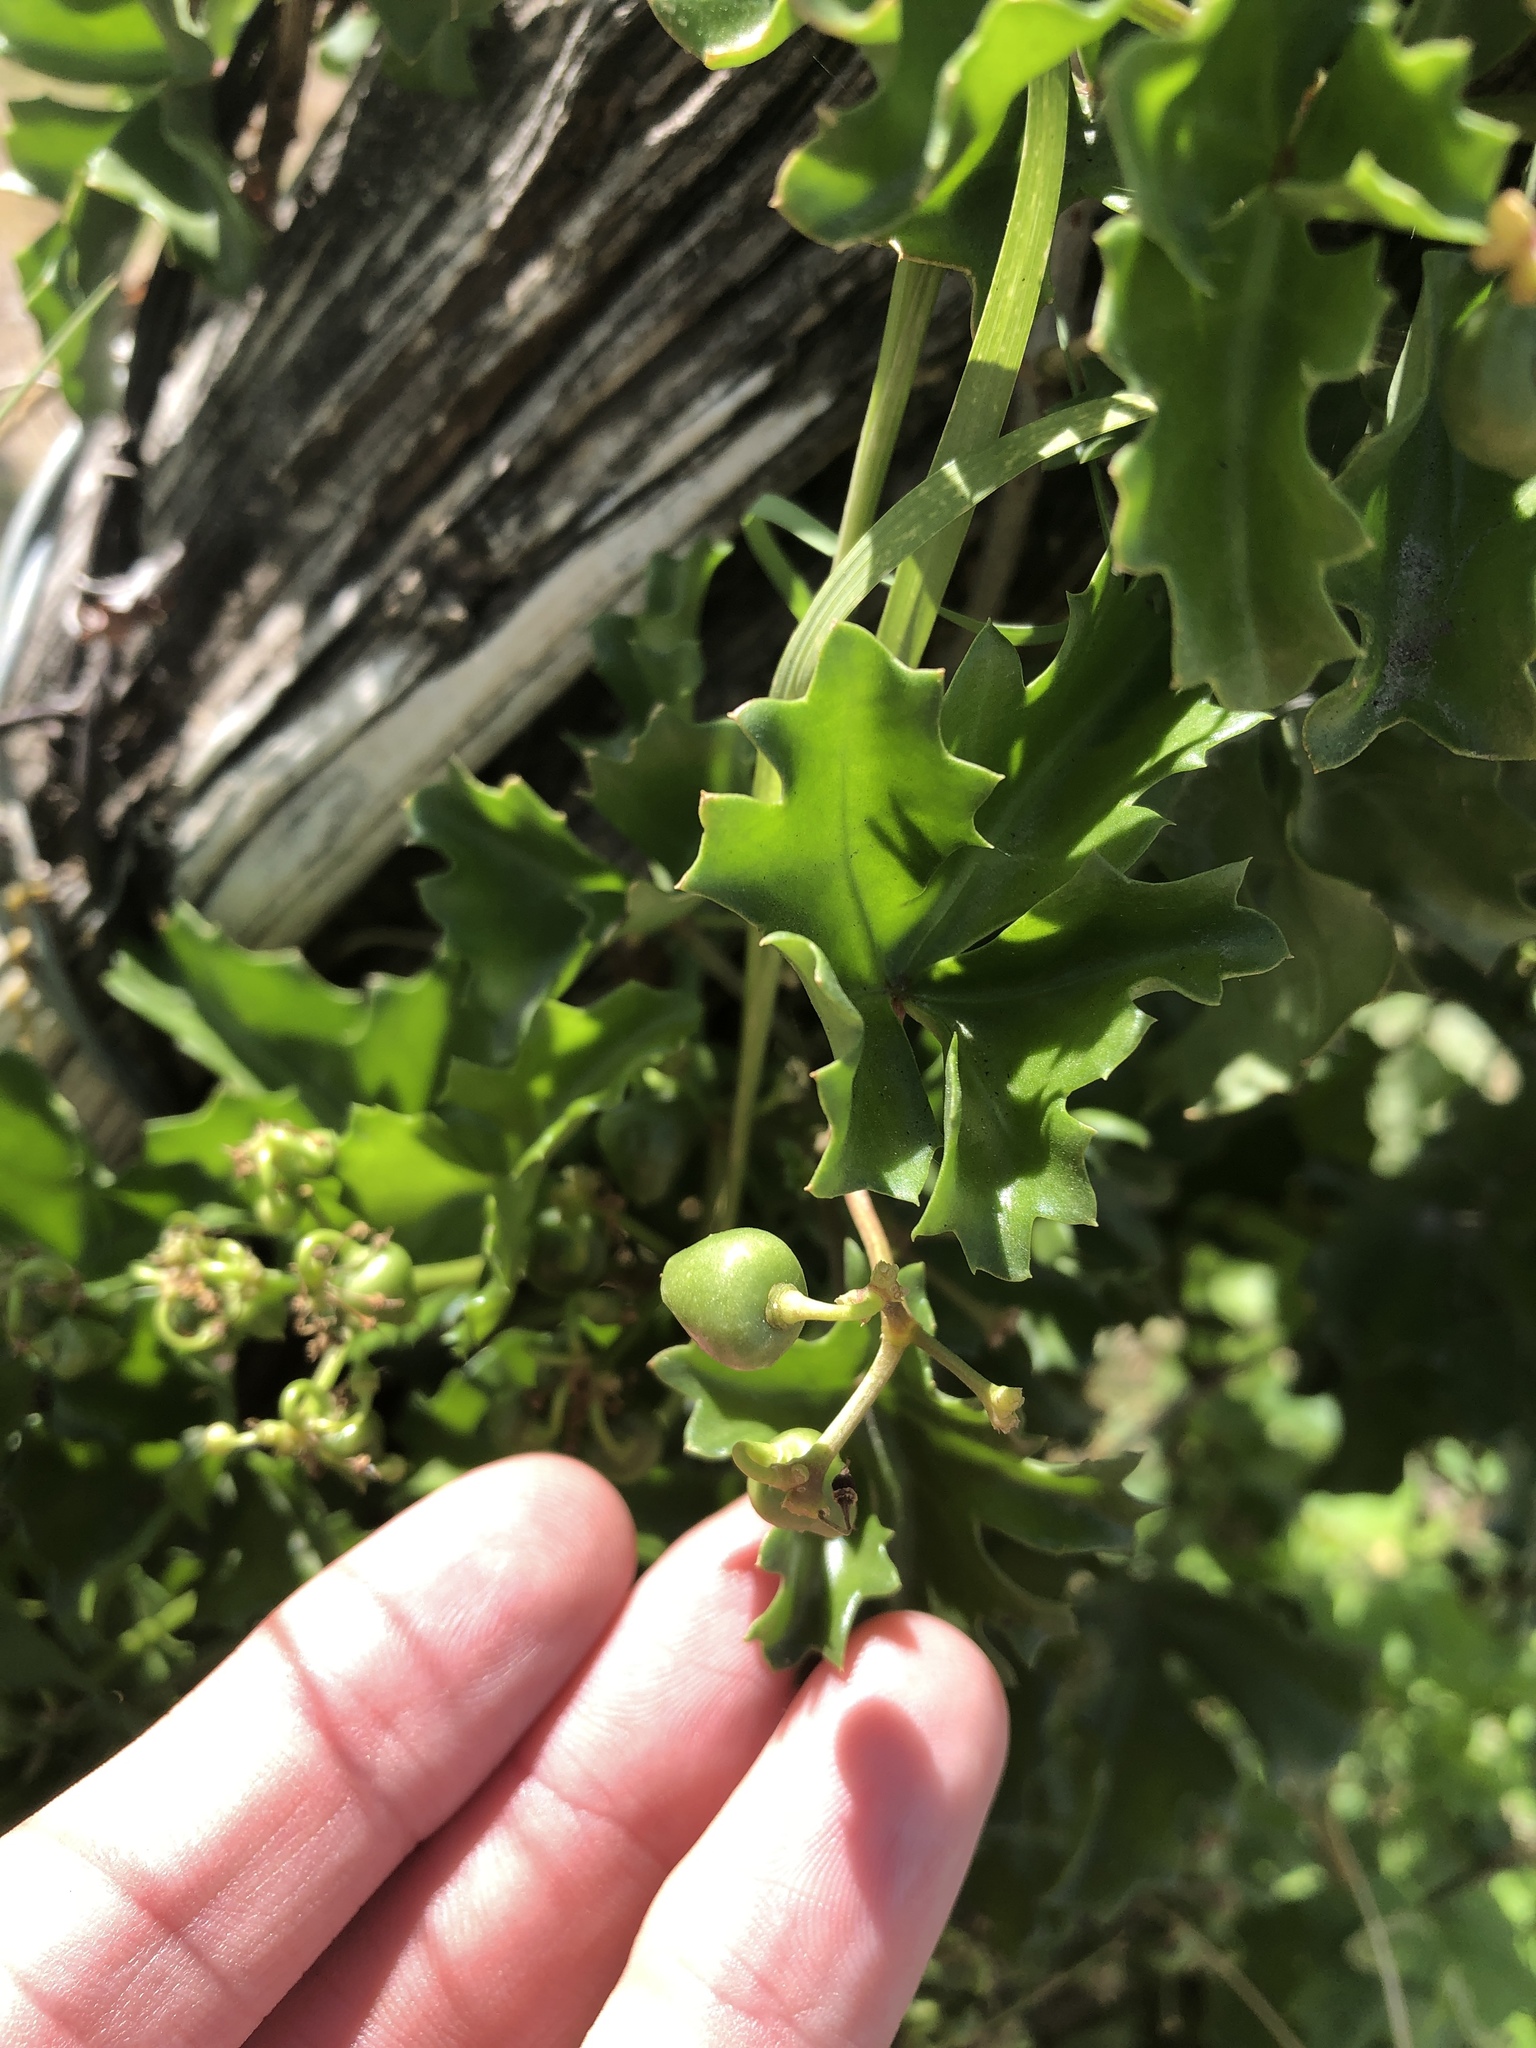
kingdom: Plantae
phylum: Tracheophyta
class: Magnoliopsida
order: Vitales
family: Vitaceae
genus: Cissus
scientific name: Cissus trifoliata
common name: Vine-sorrel
